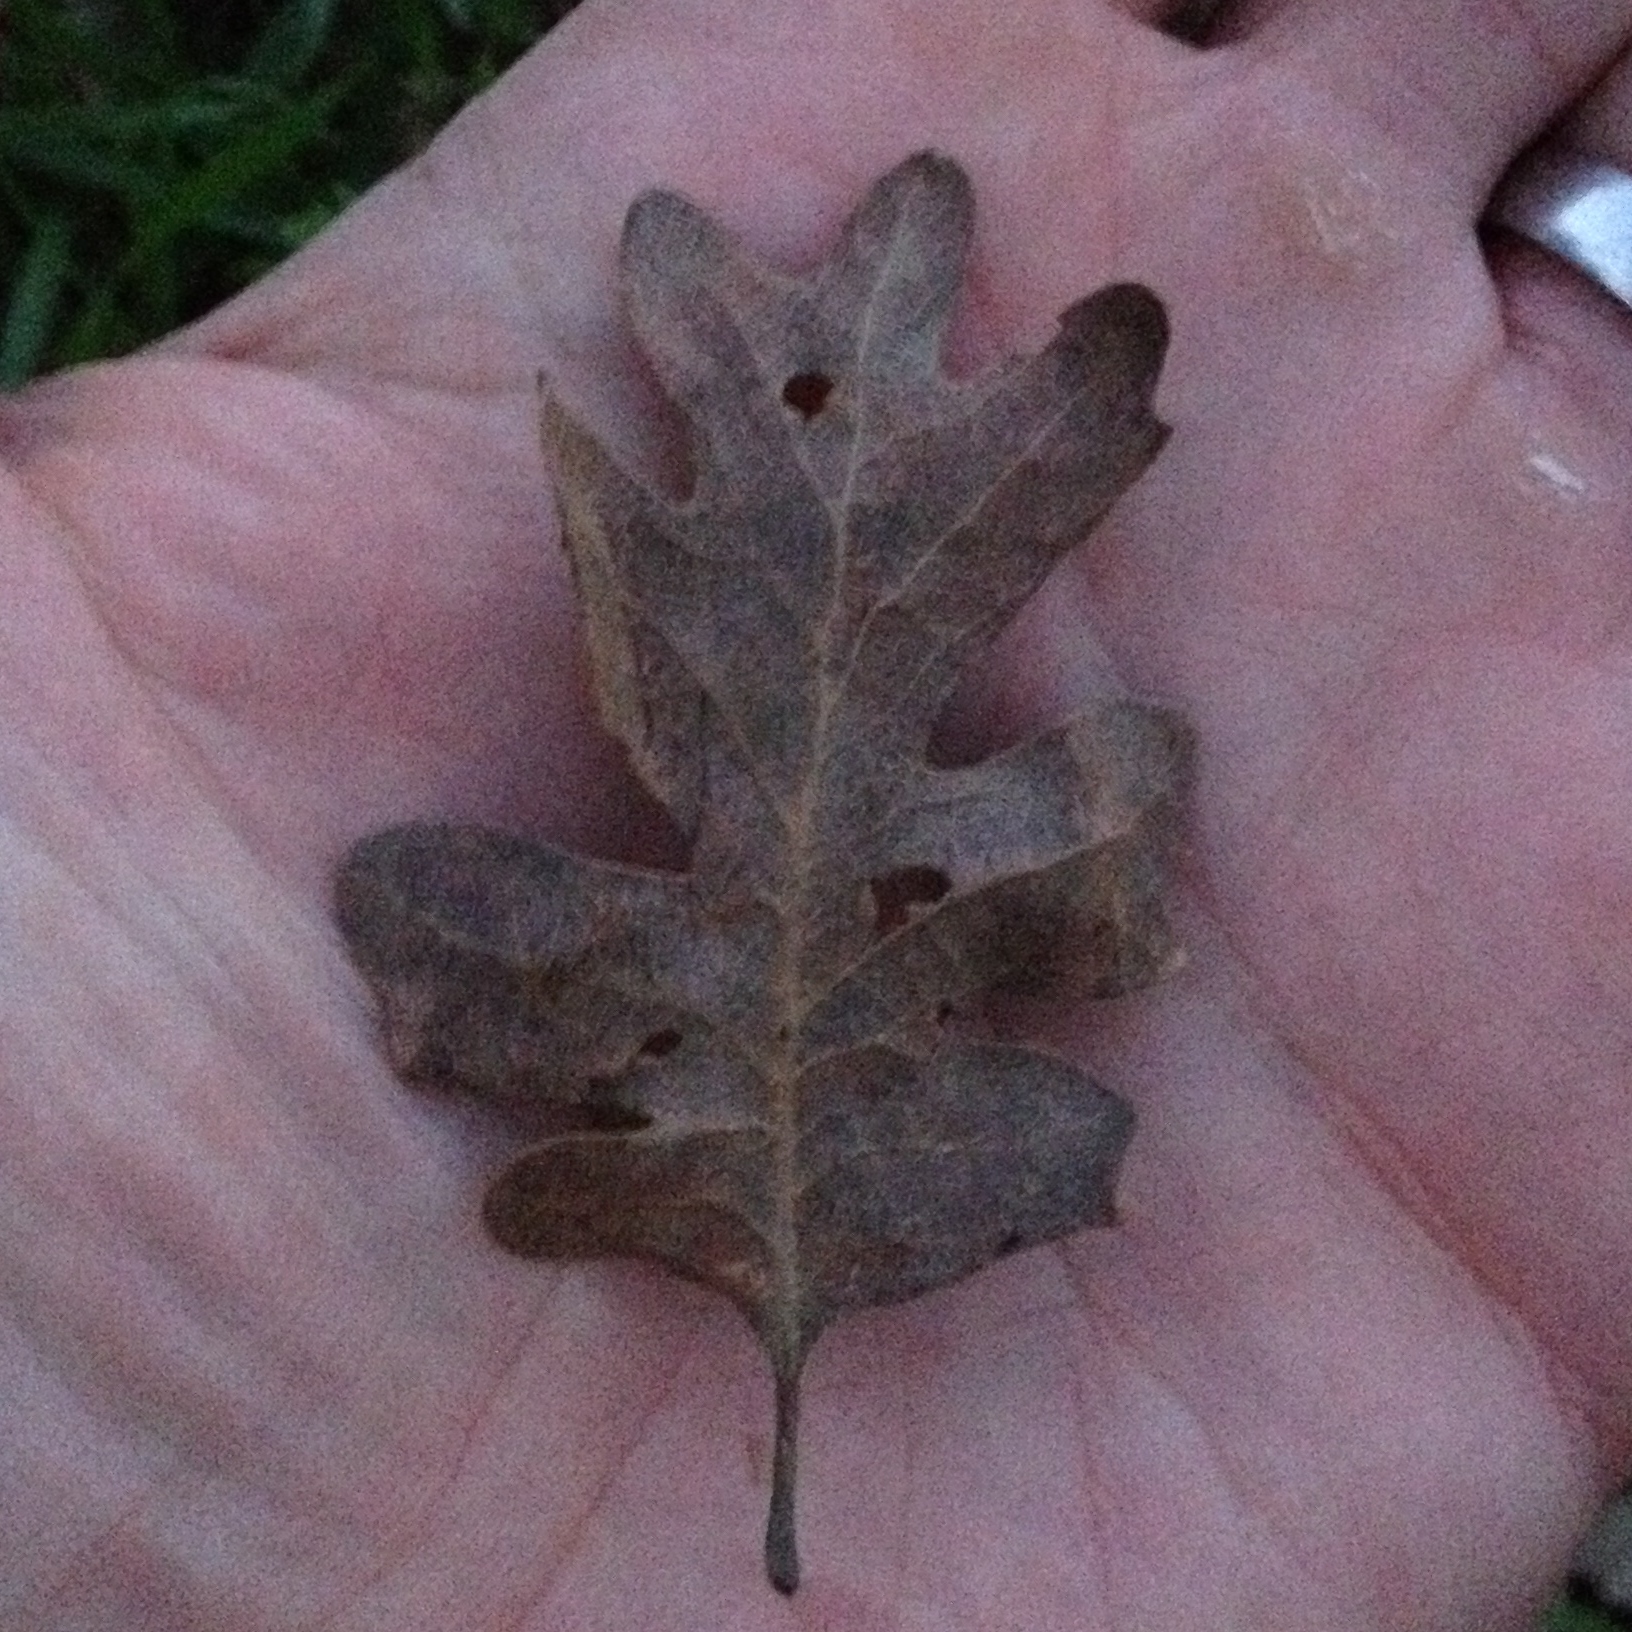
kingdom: Plantae
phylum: Tracheophyta
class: Magnoliopsida
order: Fagales
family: Fagaceae
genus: Quercus
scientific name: Quercus lobata
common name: Valley oak
